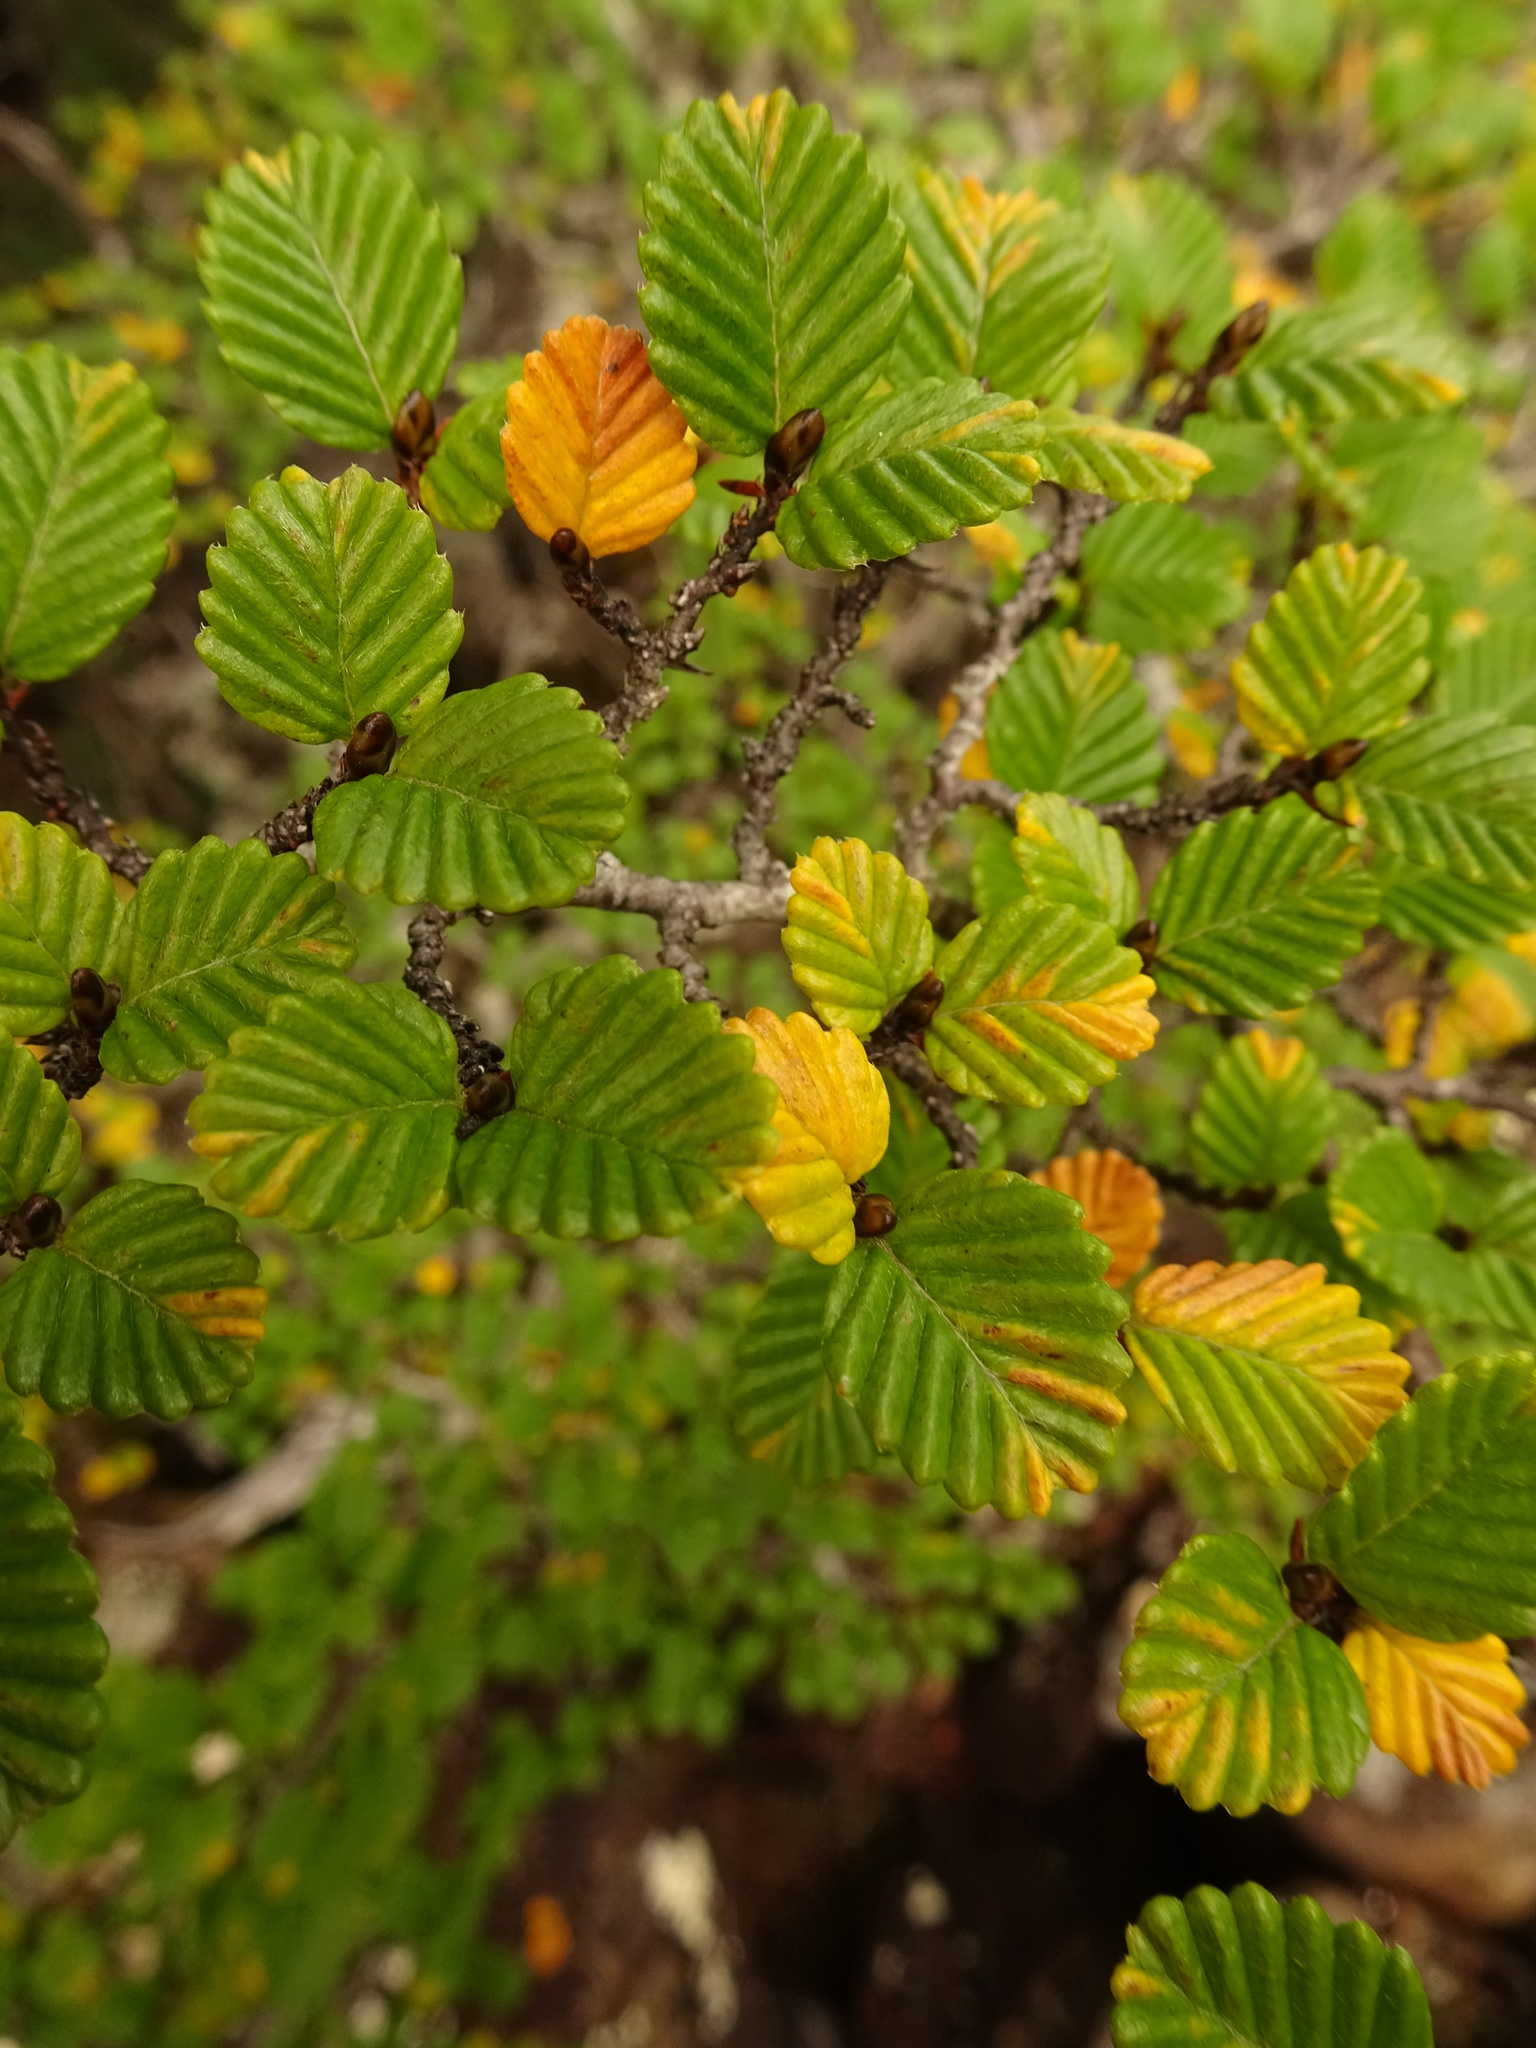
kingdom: Plantae
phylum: Tracheophyta
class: Magnoliopsida
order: Fagales
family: Nothofagaceae
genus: Nothofagus
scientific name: Nothofagus gunnii
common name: Tanglefoot
